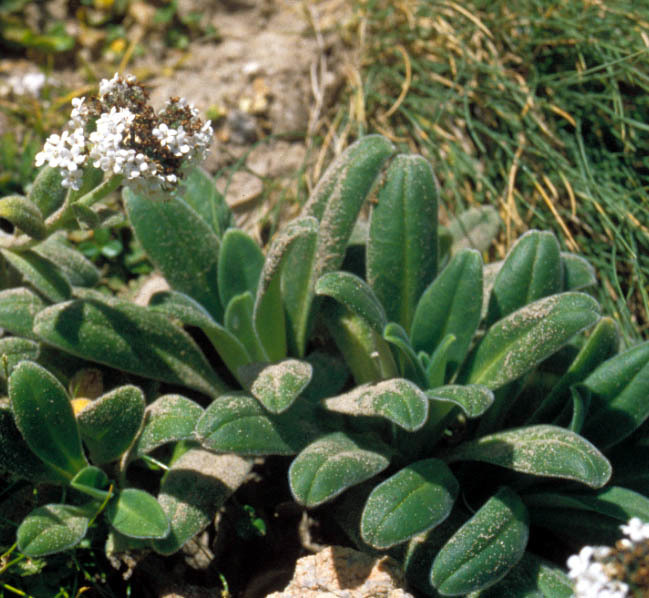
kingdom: Plantae
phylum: Tracheophyta
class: Magnoliopsida
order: Boraginales
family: Boraginaceae
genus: Myosotis
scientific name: Myosotis rakiura
